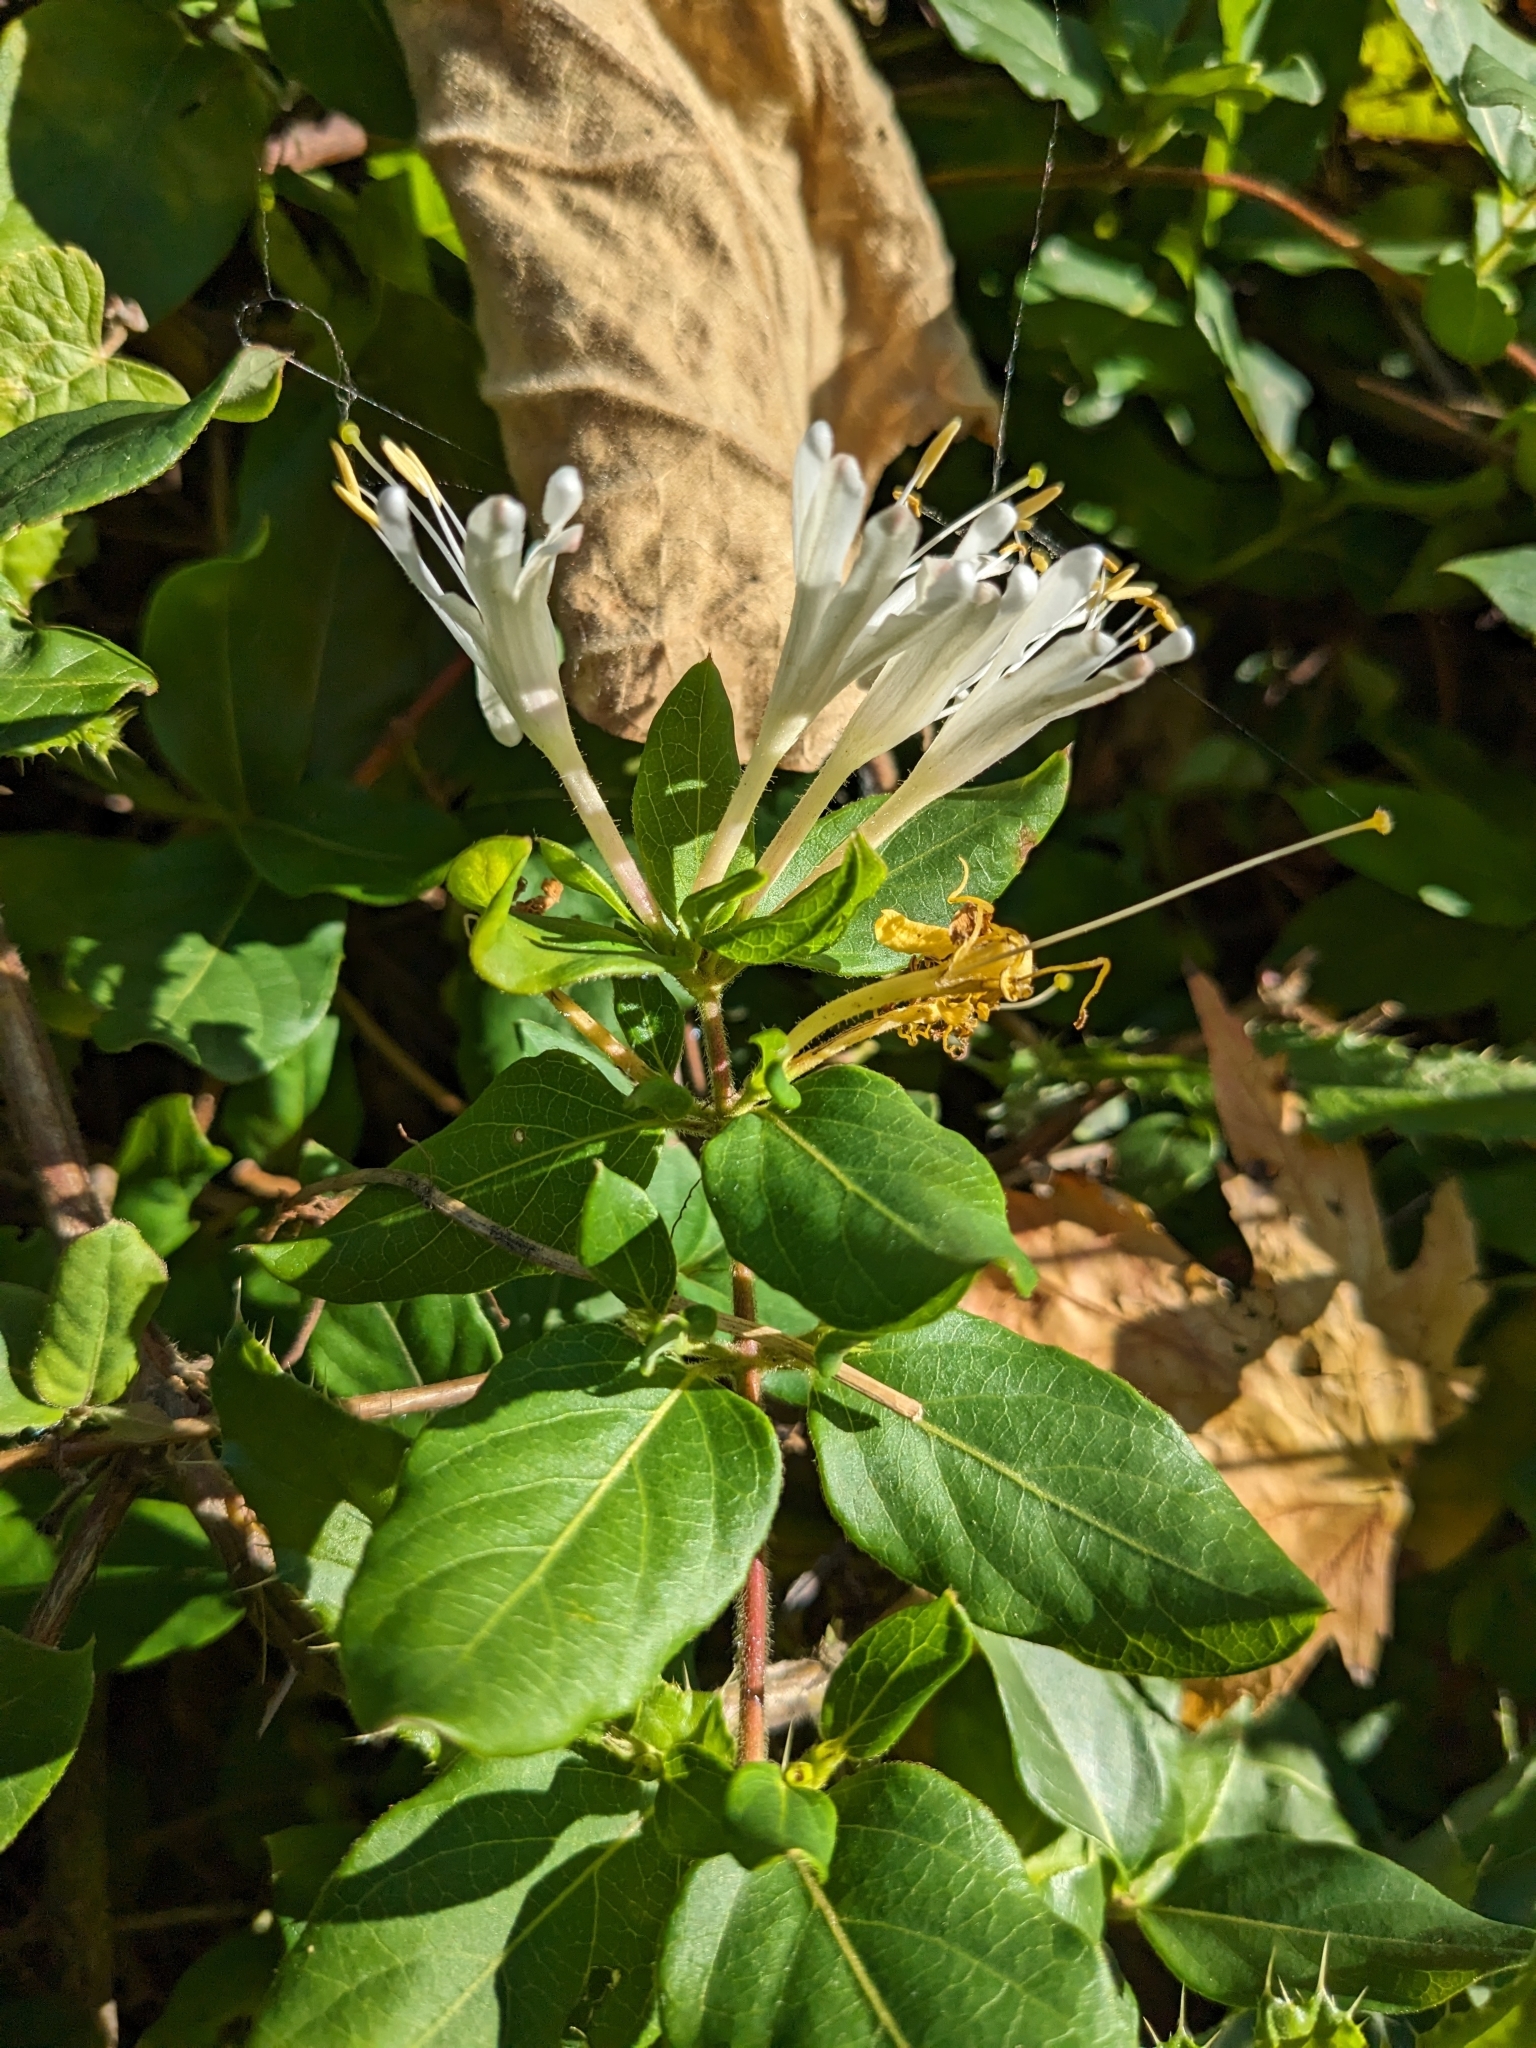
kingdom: Plantae
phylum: Tracheophyta
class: Magnoliopsida
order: Dipsacales
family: Caprifoliaceae
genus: Lonicera
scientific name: Lonicera japonica
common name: Japanese honeysuckle
